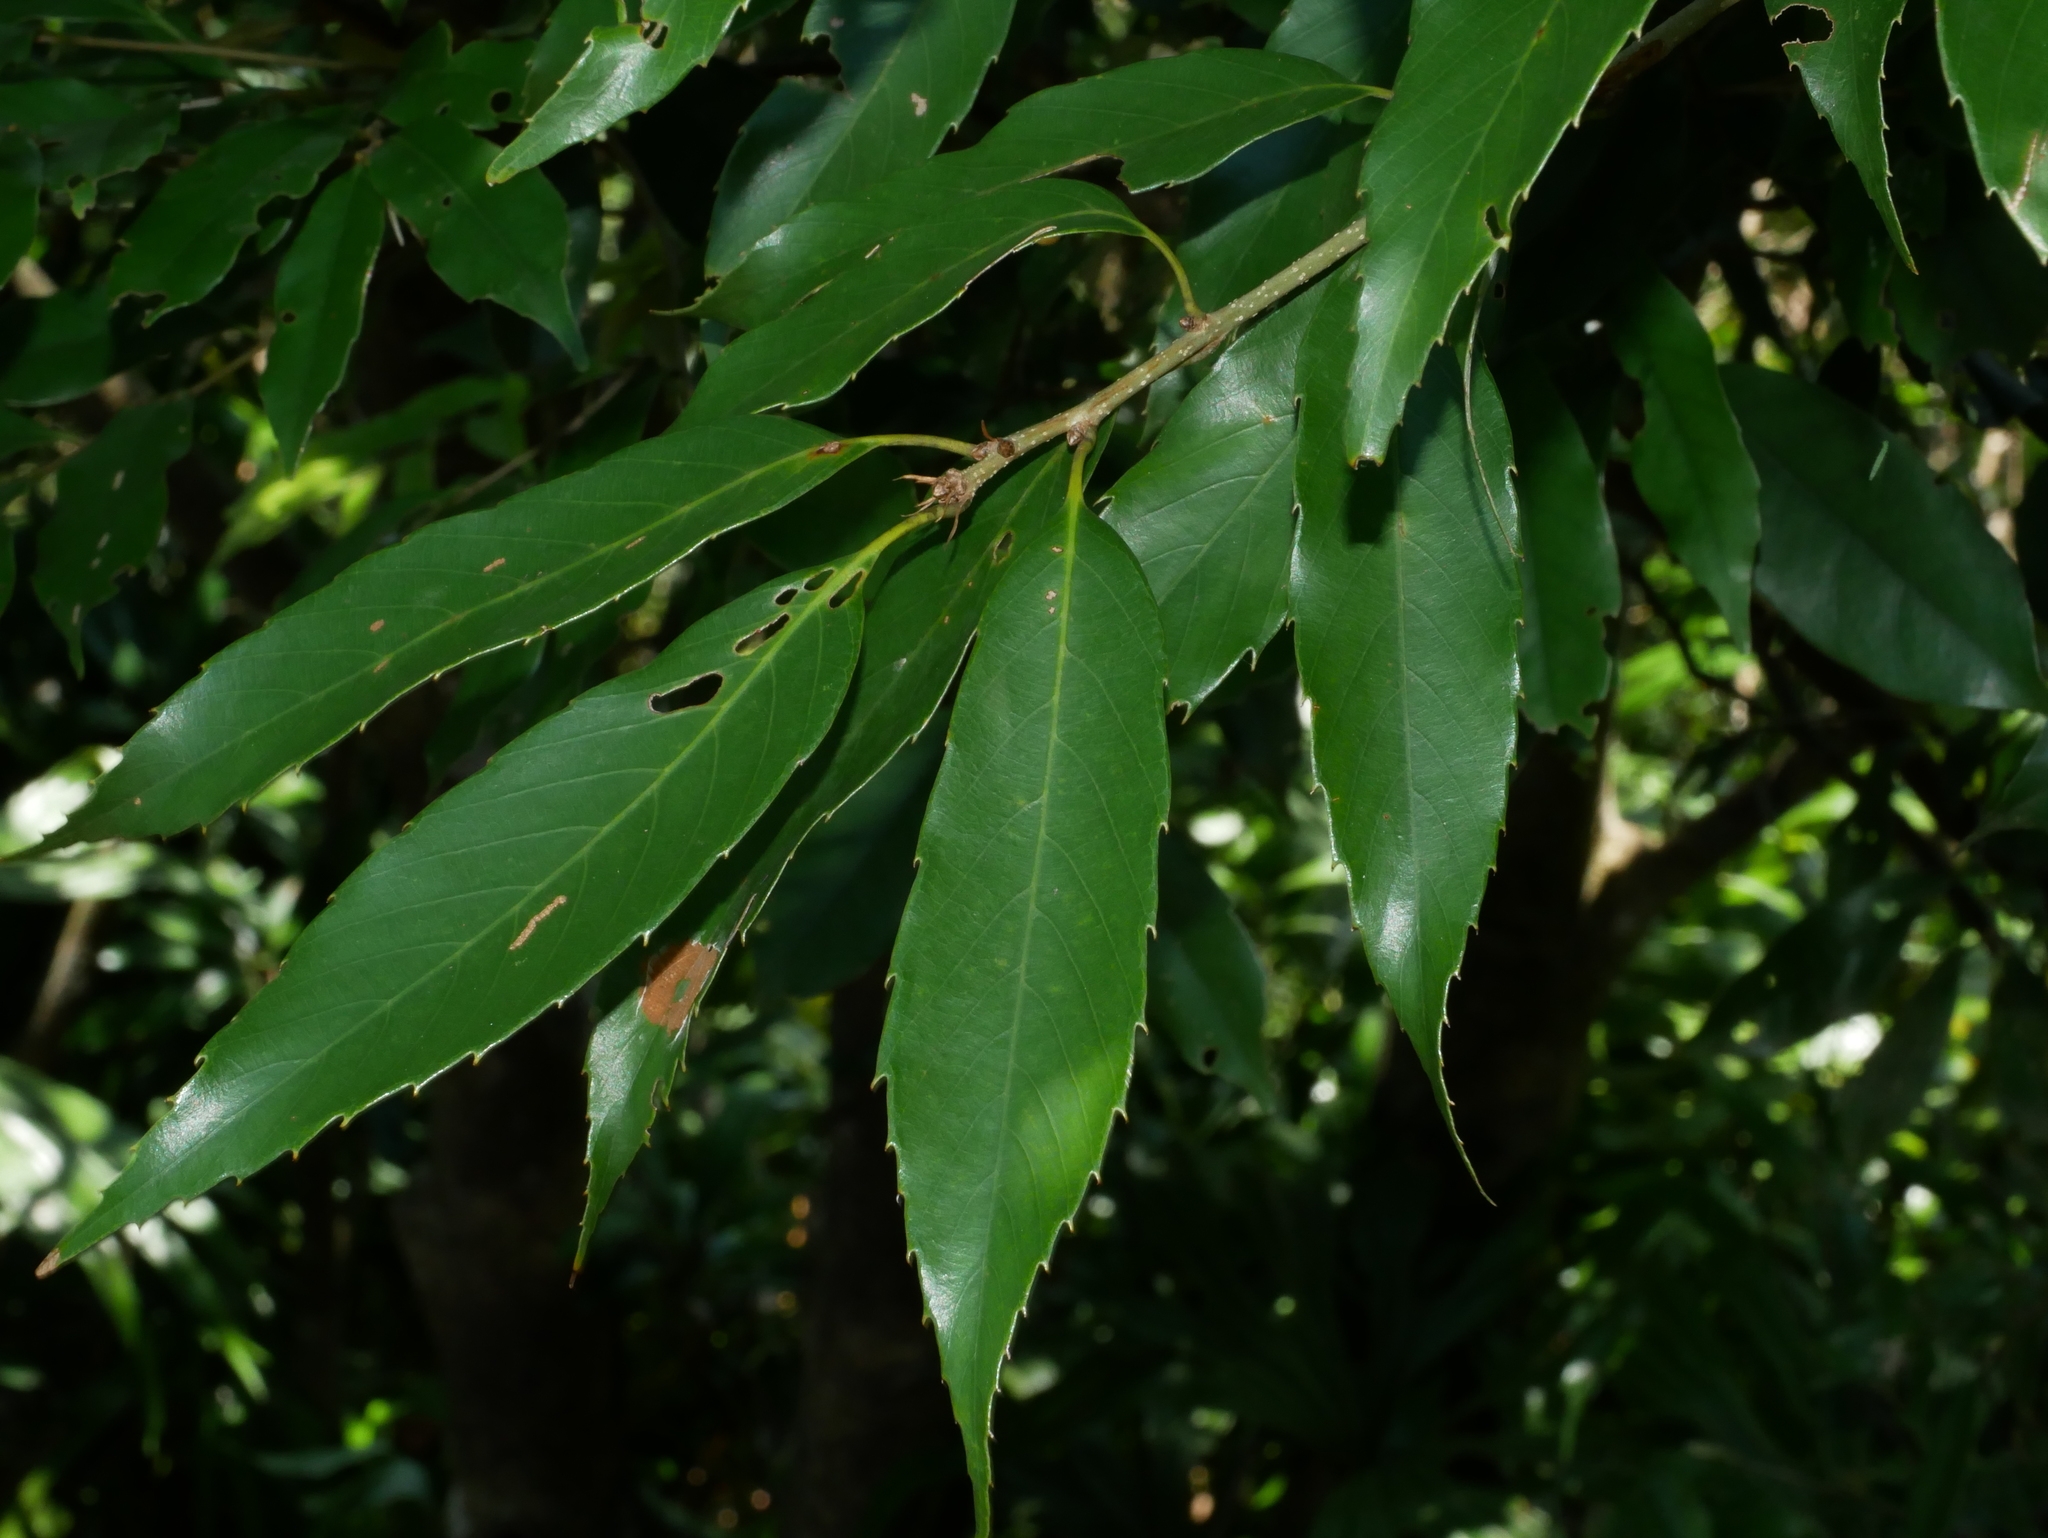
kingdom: Plantae
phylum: Tracheophyta
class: Magnoliopsida
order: Fagales
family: Fagaceae
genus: Quercus
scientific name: Quercus stenophylloides
